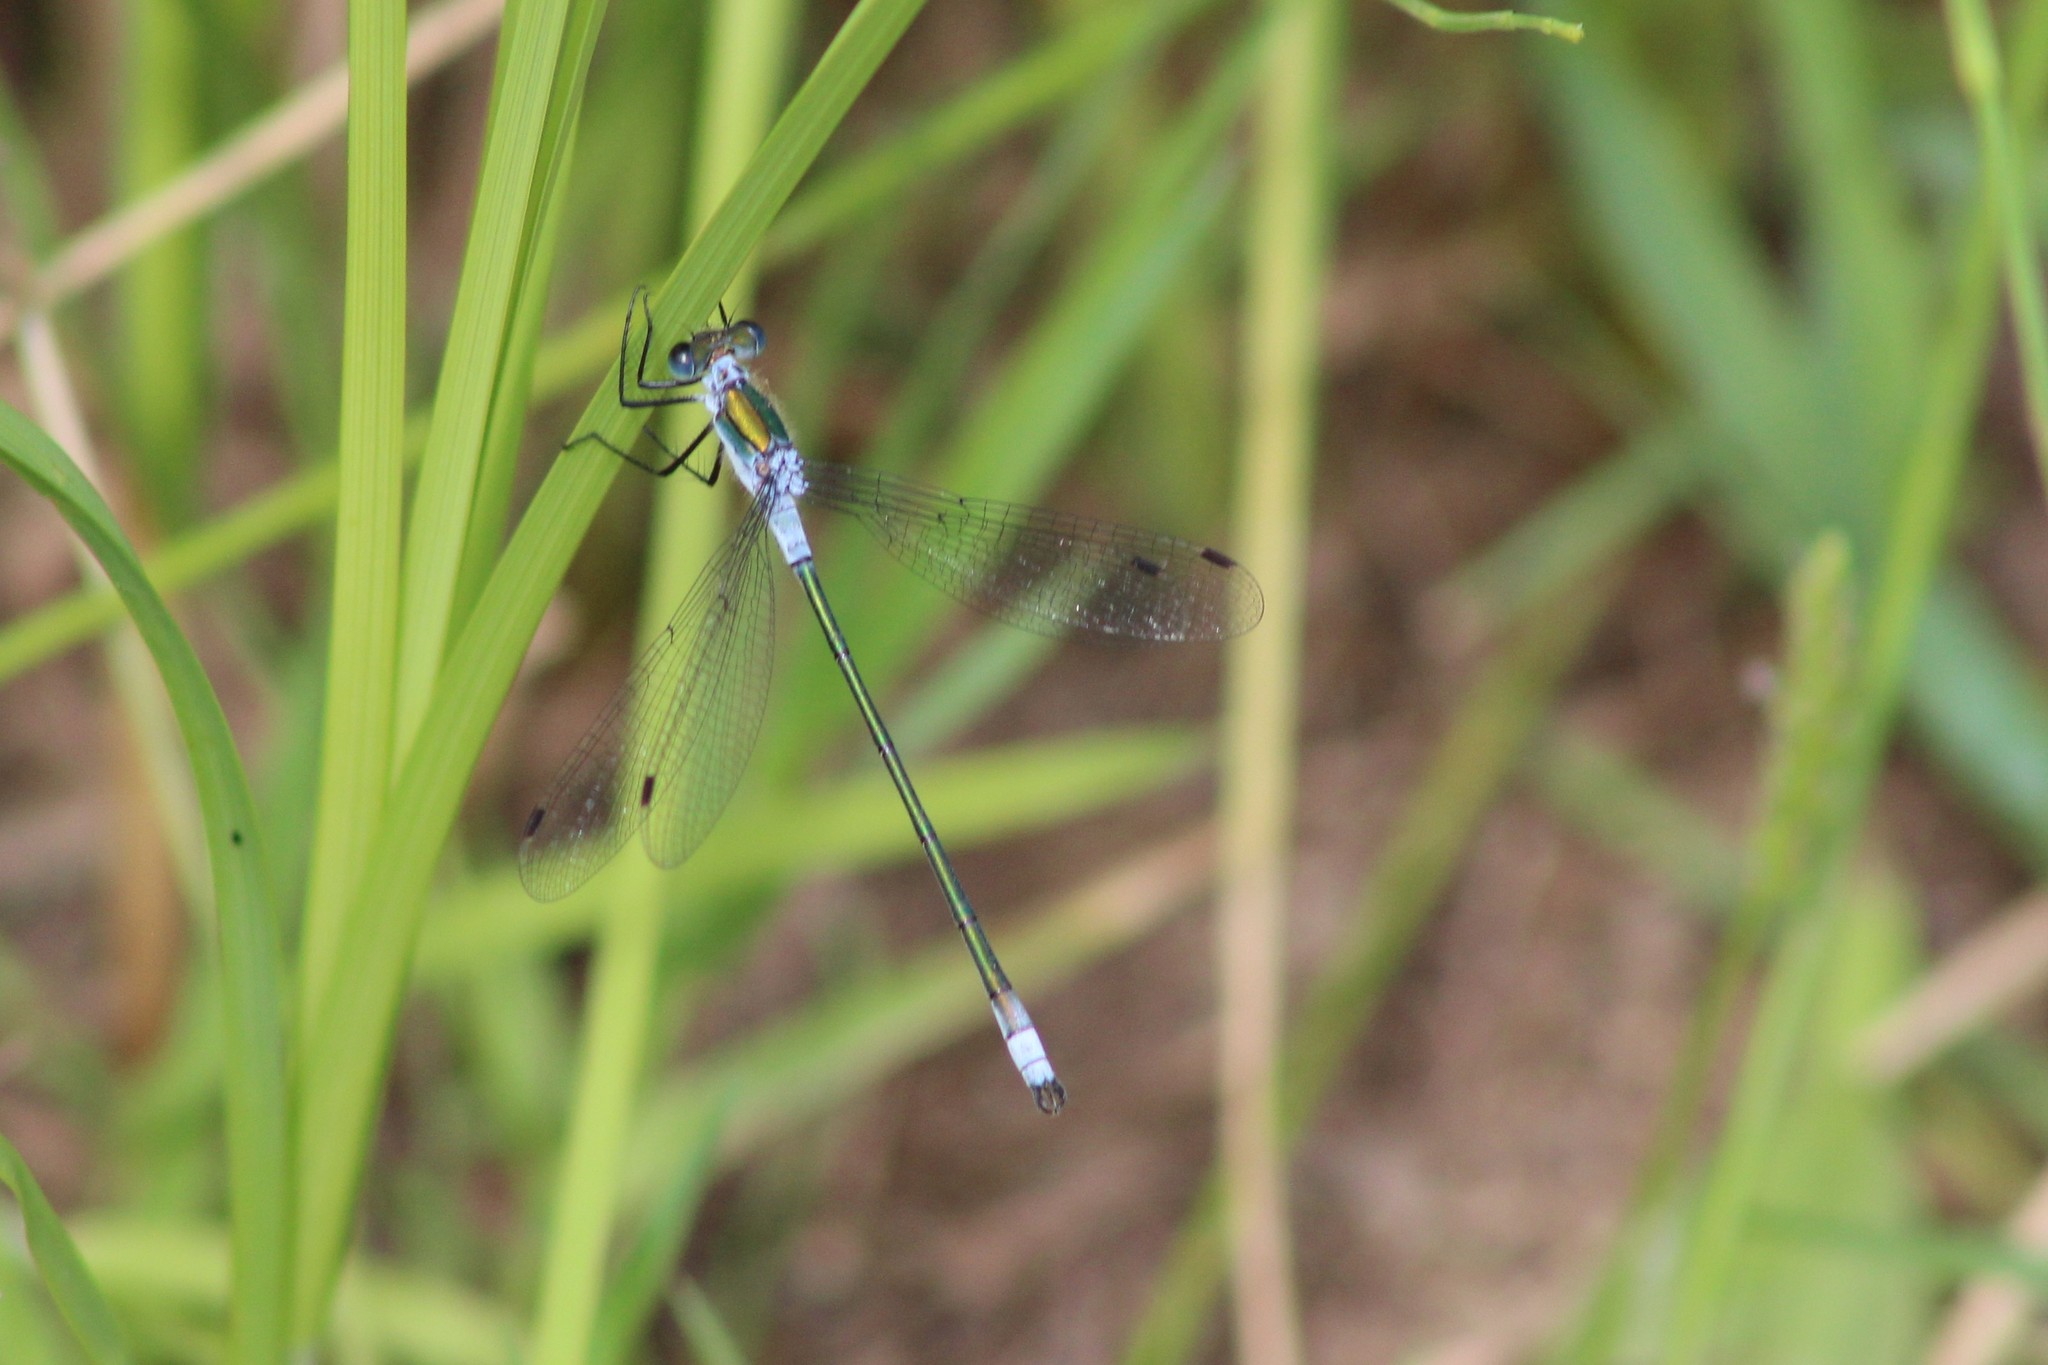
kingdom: Animalia
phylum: Arthropoda
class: Insecta
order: Odonata
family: Lestidae
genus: Lestes
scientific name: Lestes sponsa
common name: Common spreadwing
